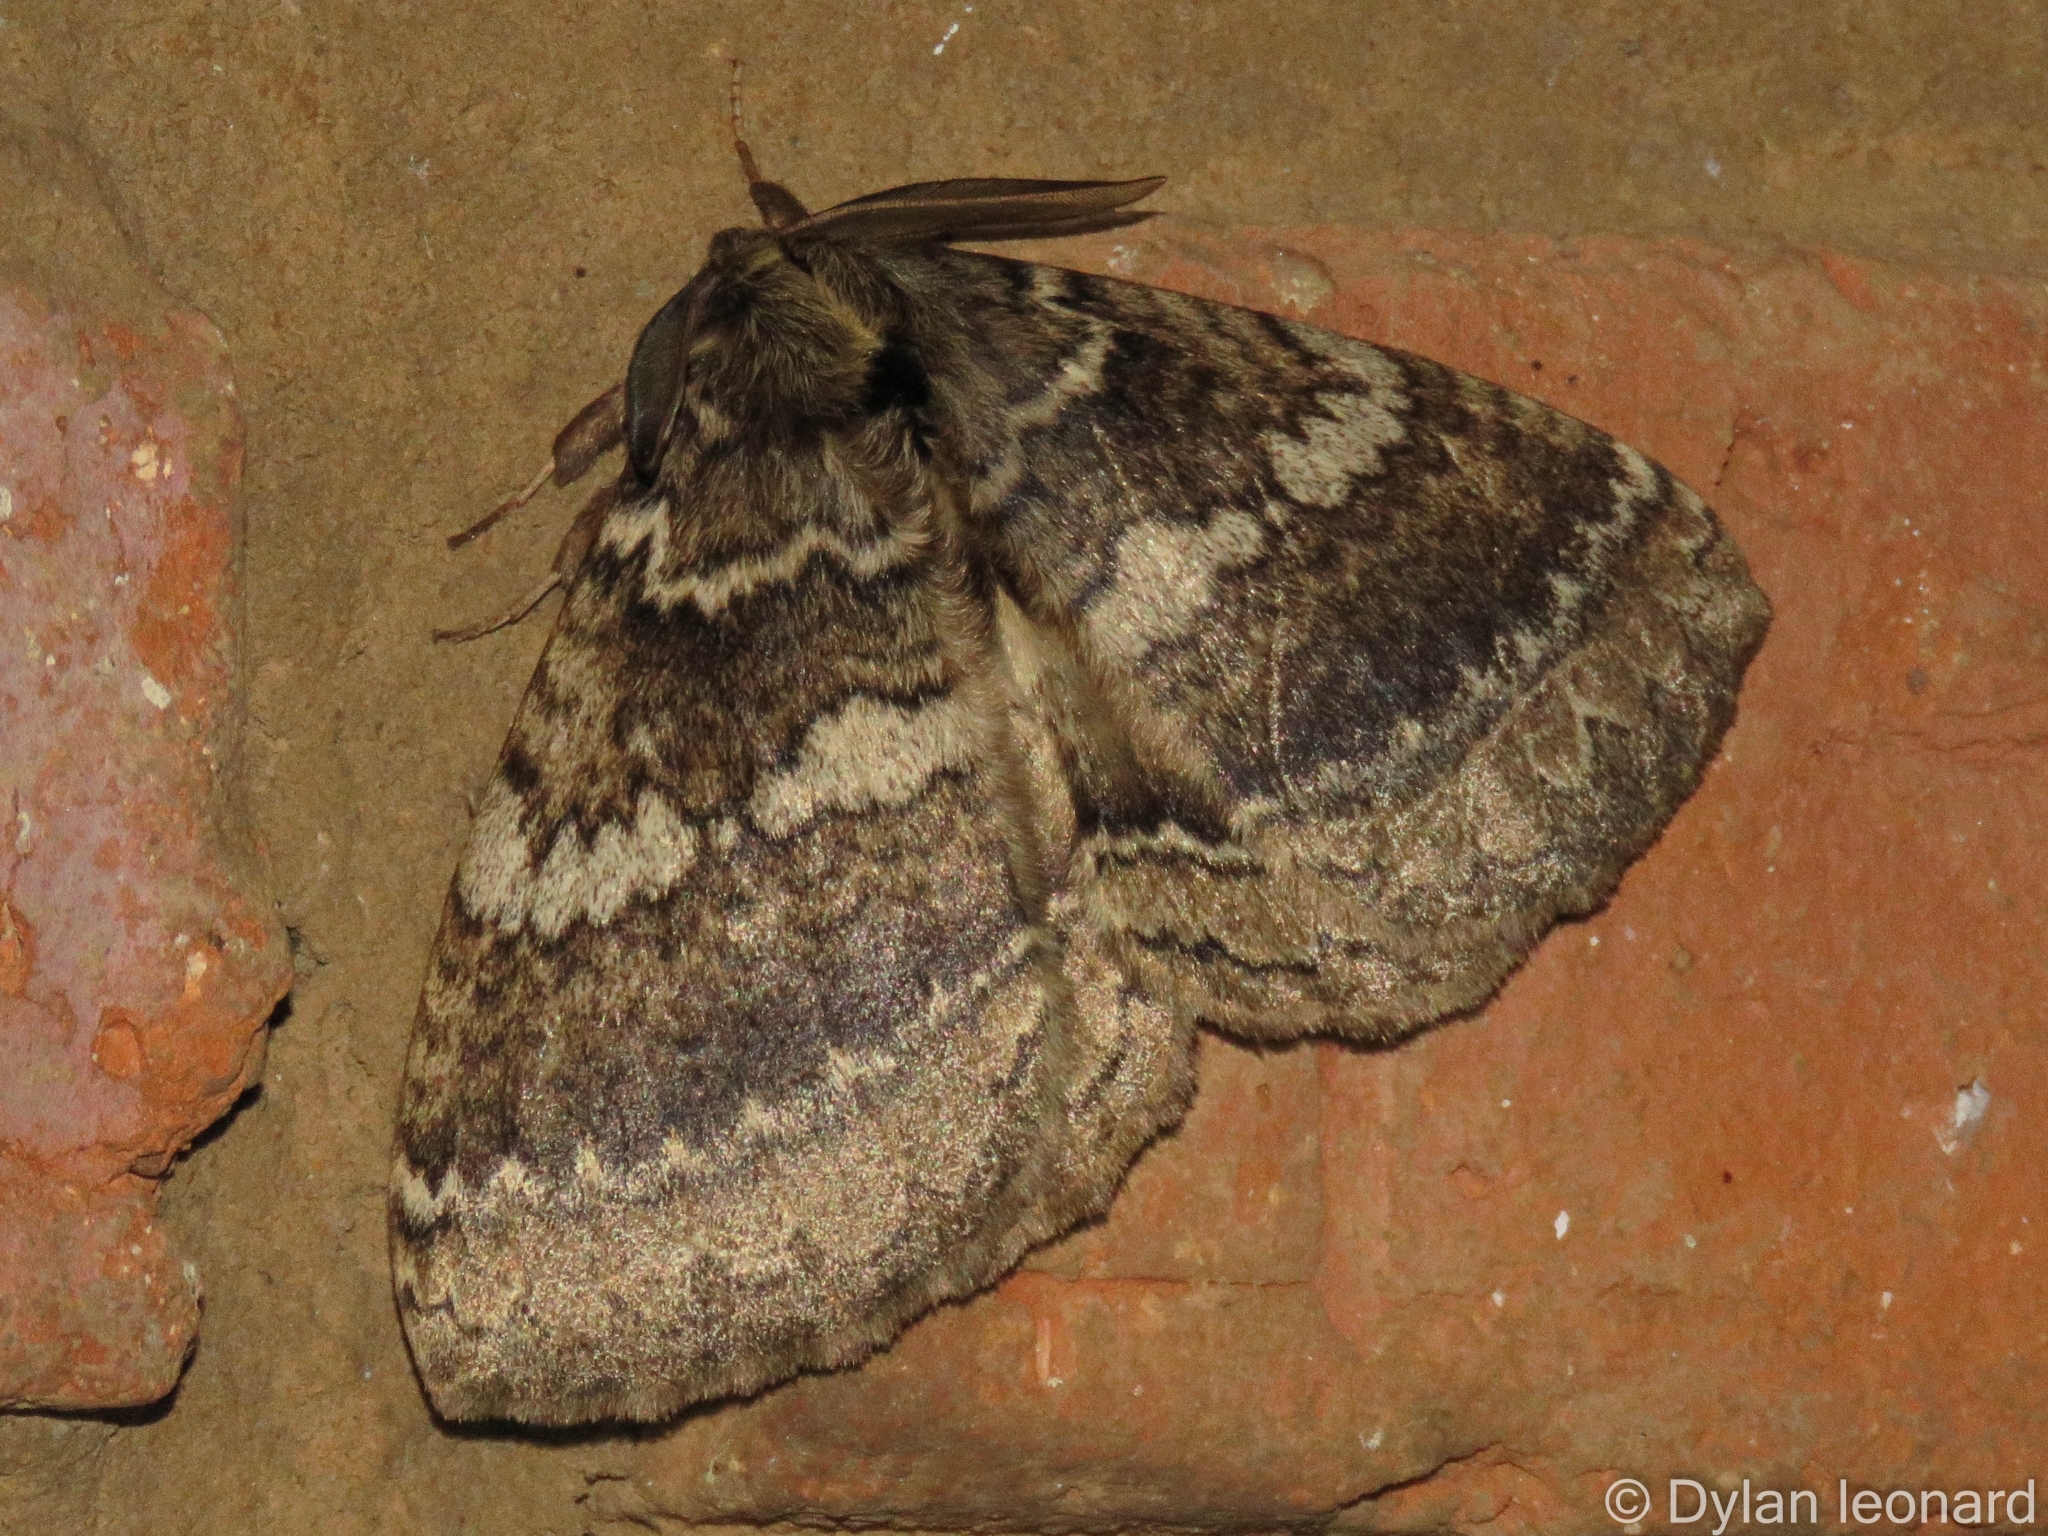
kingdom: Animalia
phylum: Arthropoda
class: Insecta
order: Lepidoptera
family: Eupterotidae
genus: Striphnopteryx
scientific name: Striphnopteryx edulis
